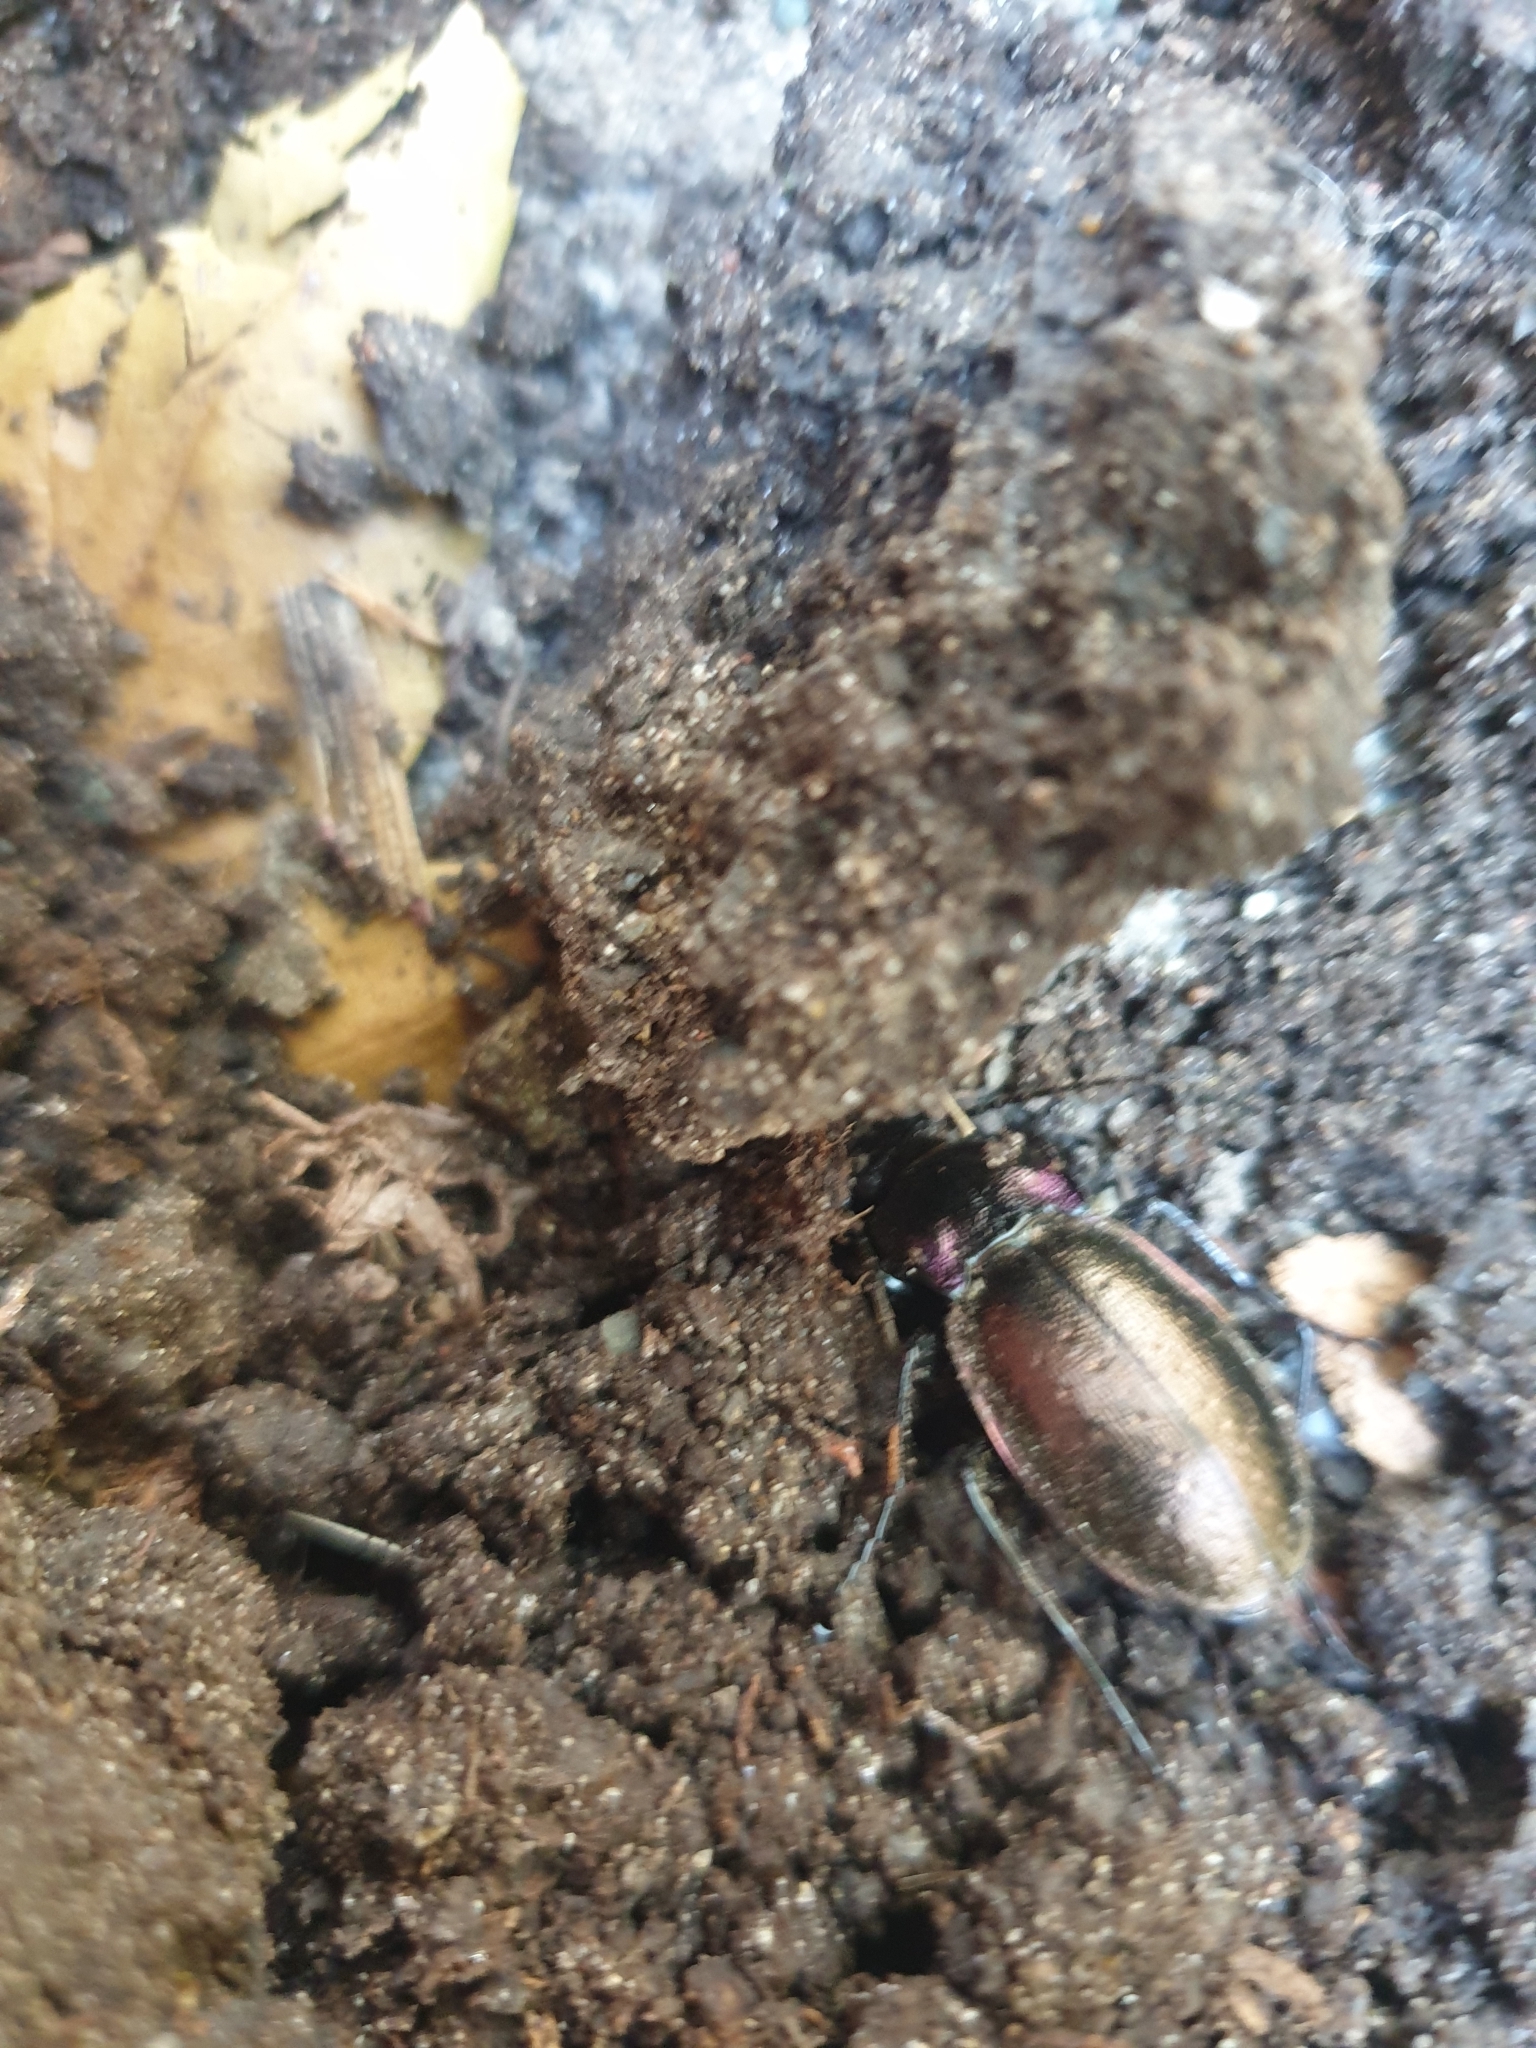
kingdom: Animalia
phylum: Arthropoda
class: Insecta
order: Coleoptera
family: Carabidae
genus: Carabus
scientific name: Carabus nemoralis
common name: European ground beetle
